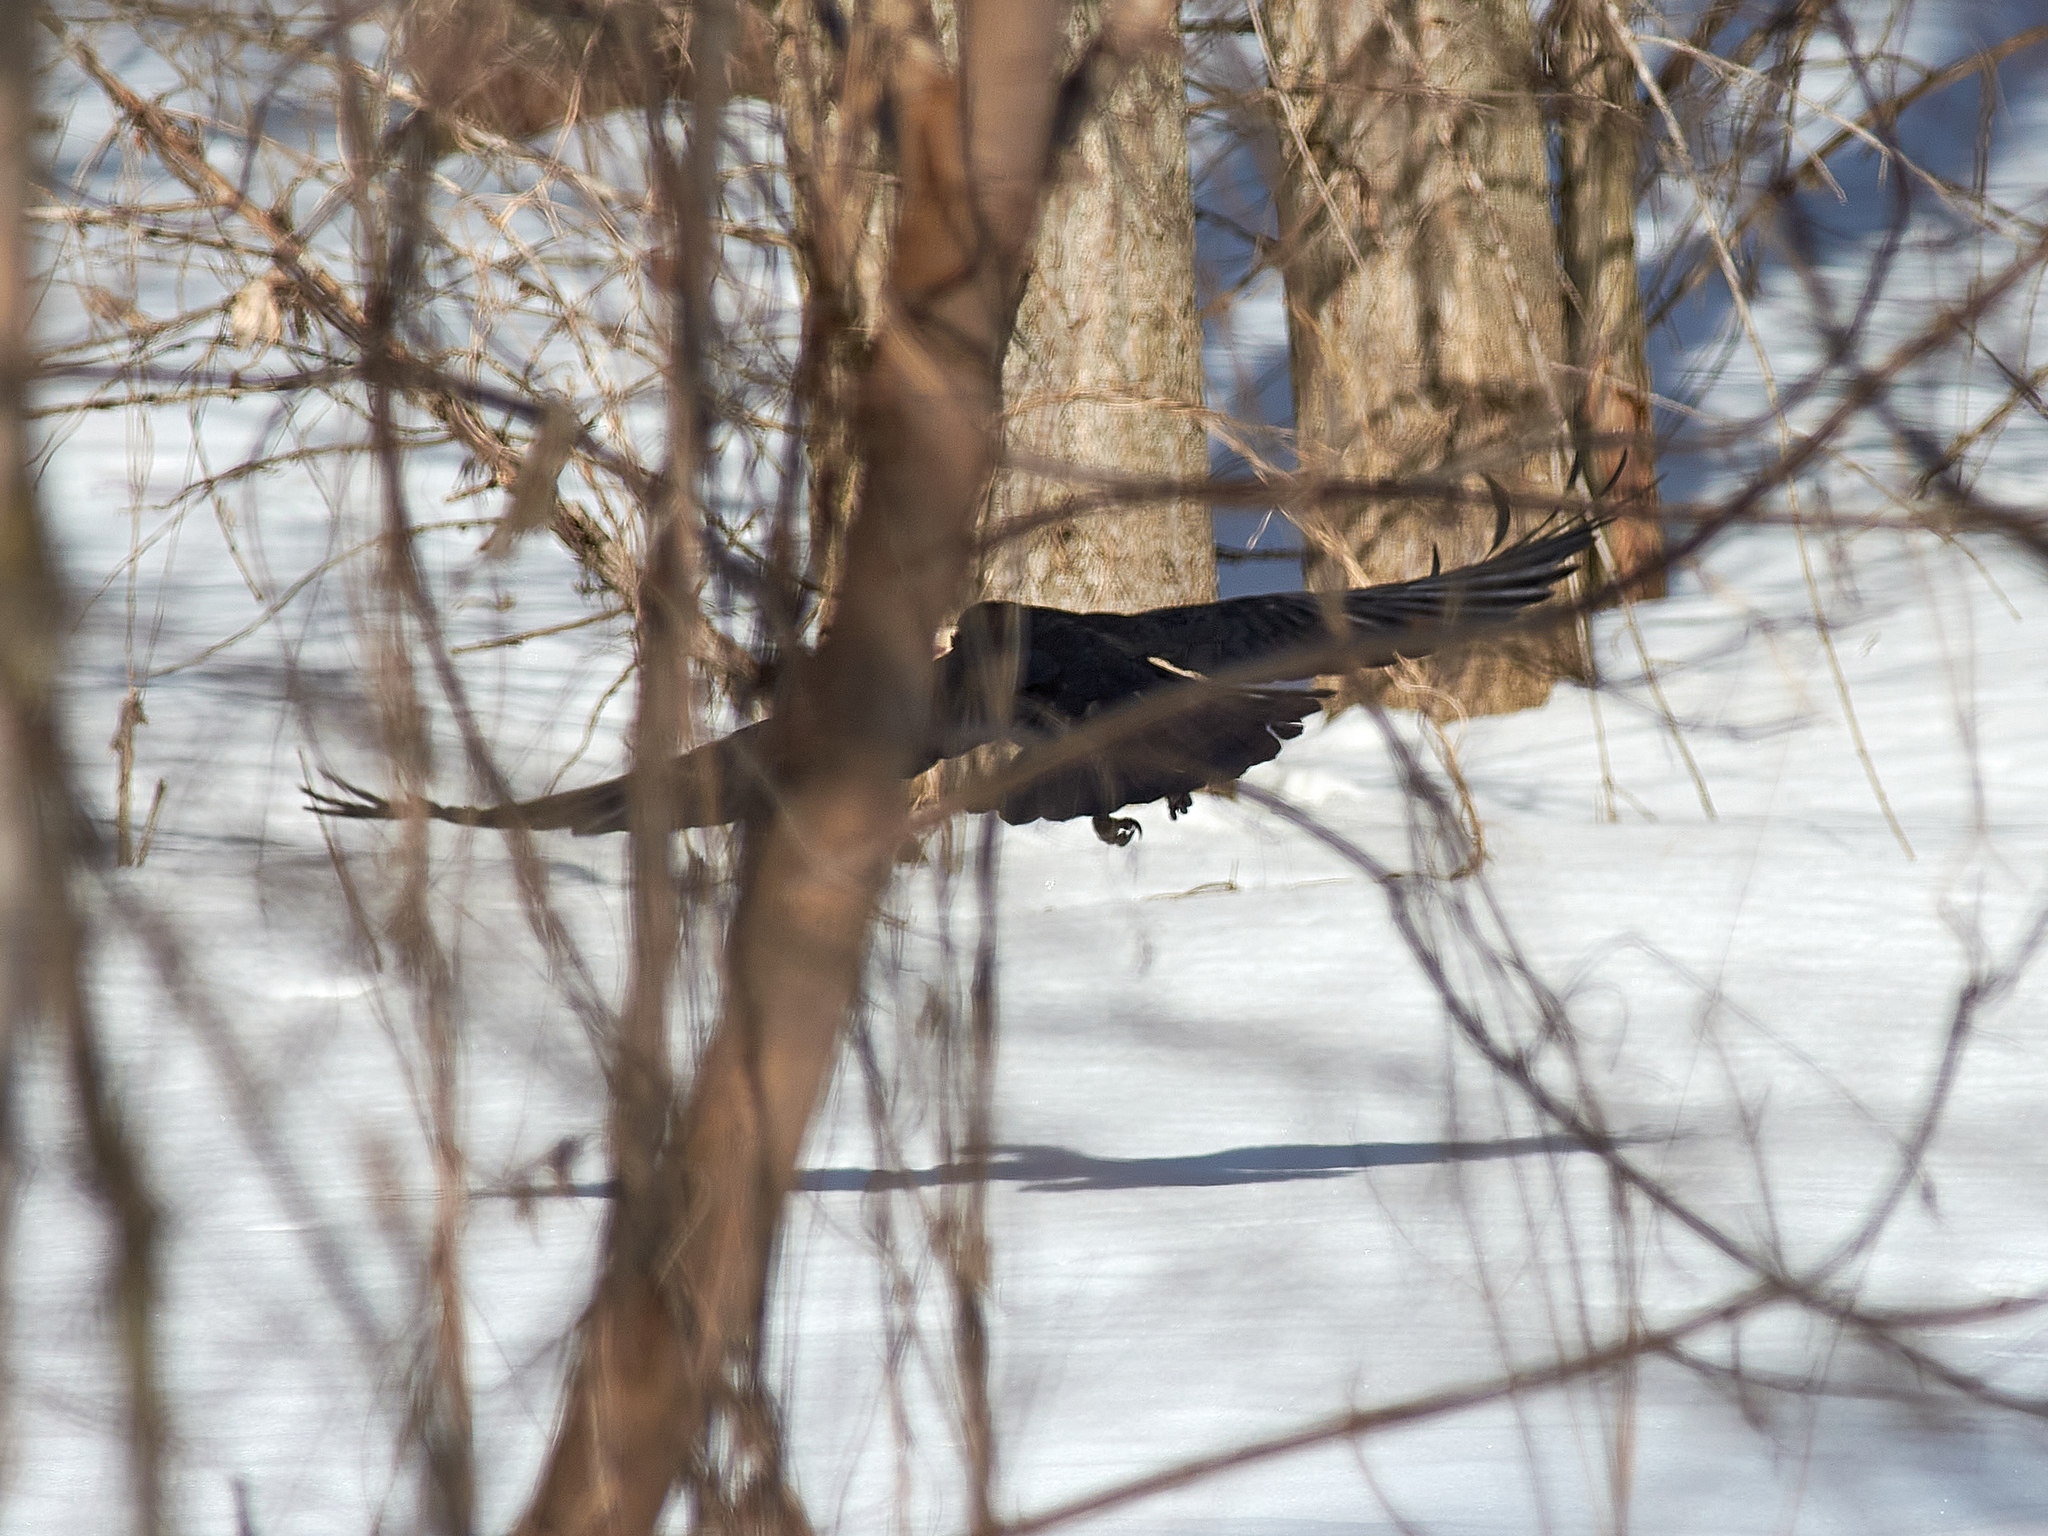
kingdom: Animalia
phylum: Chordata
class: Aves
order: Passeriformes
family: Corvidae
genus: Corvus
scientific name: Corvus corax
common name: Common raven
